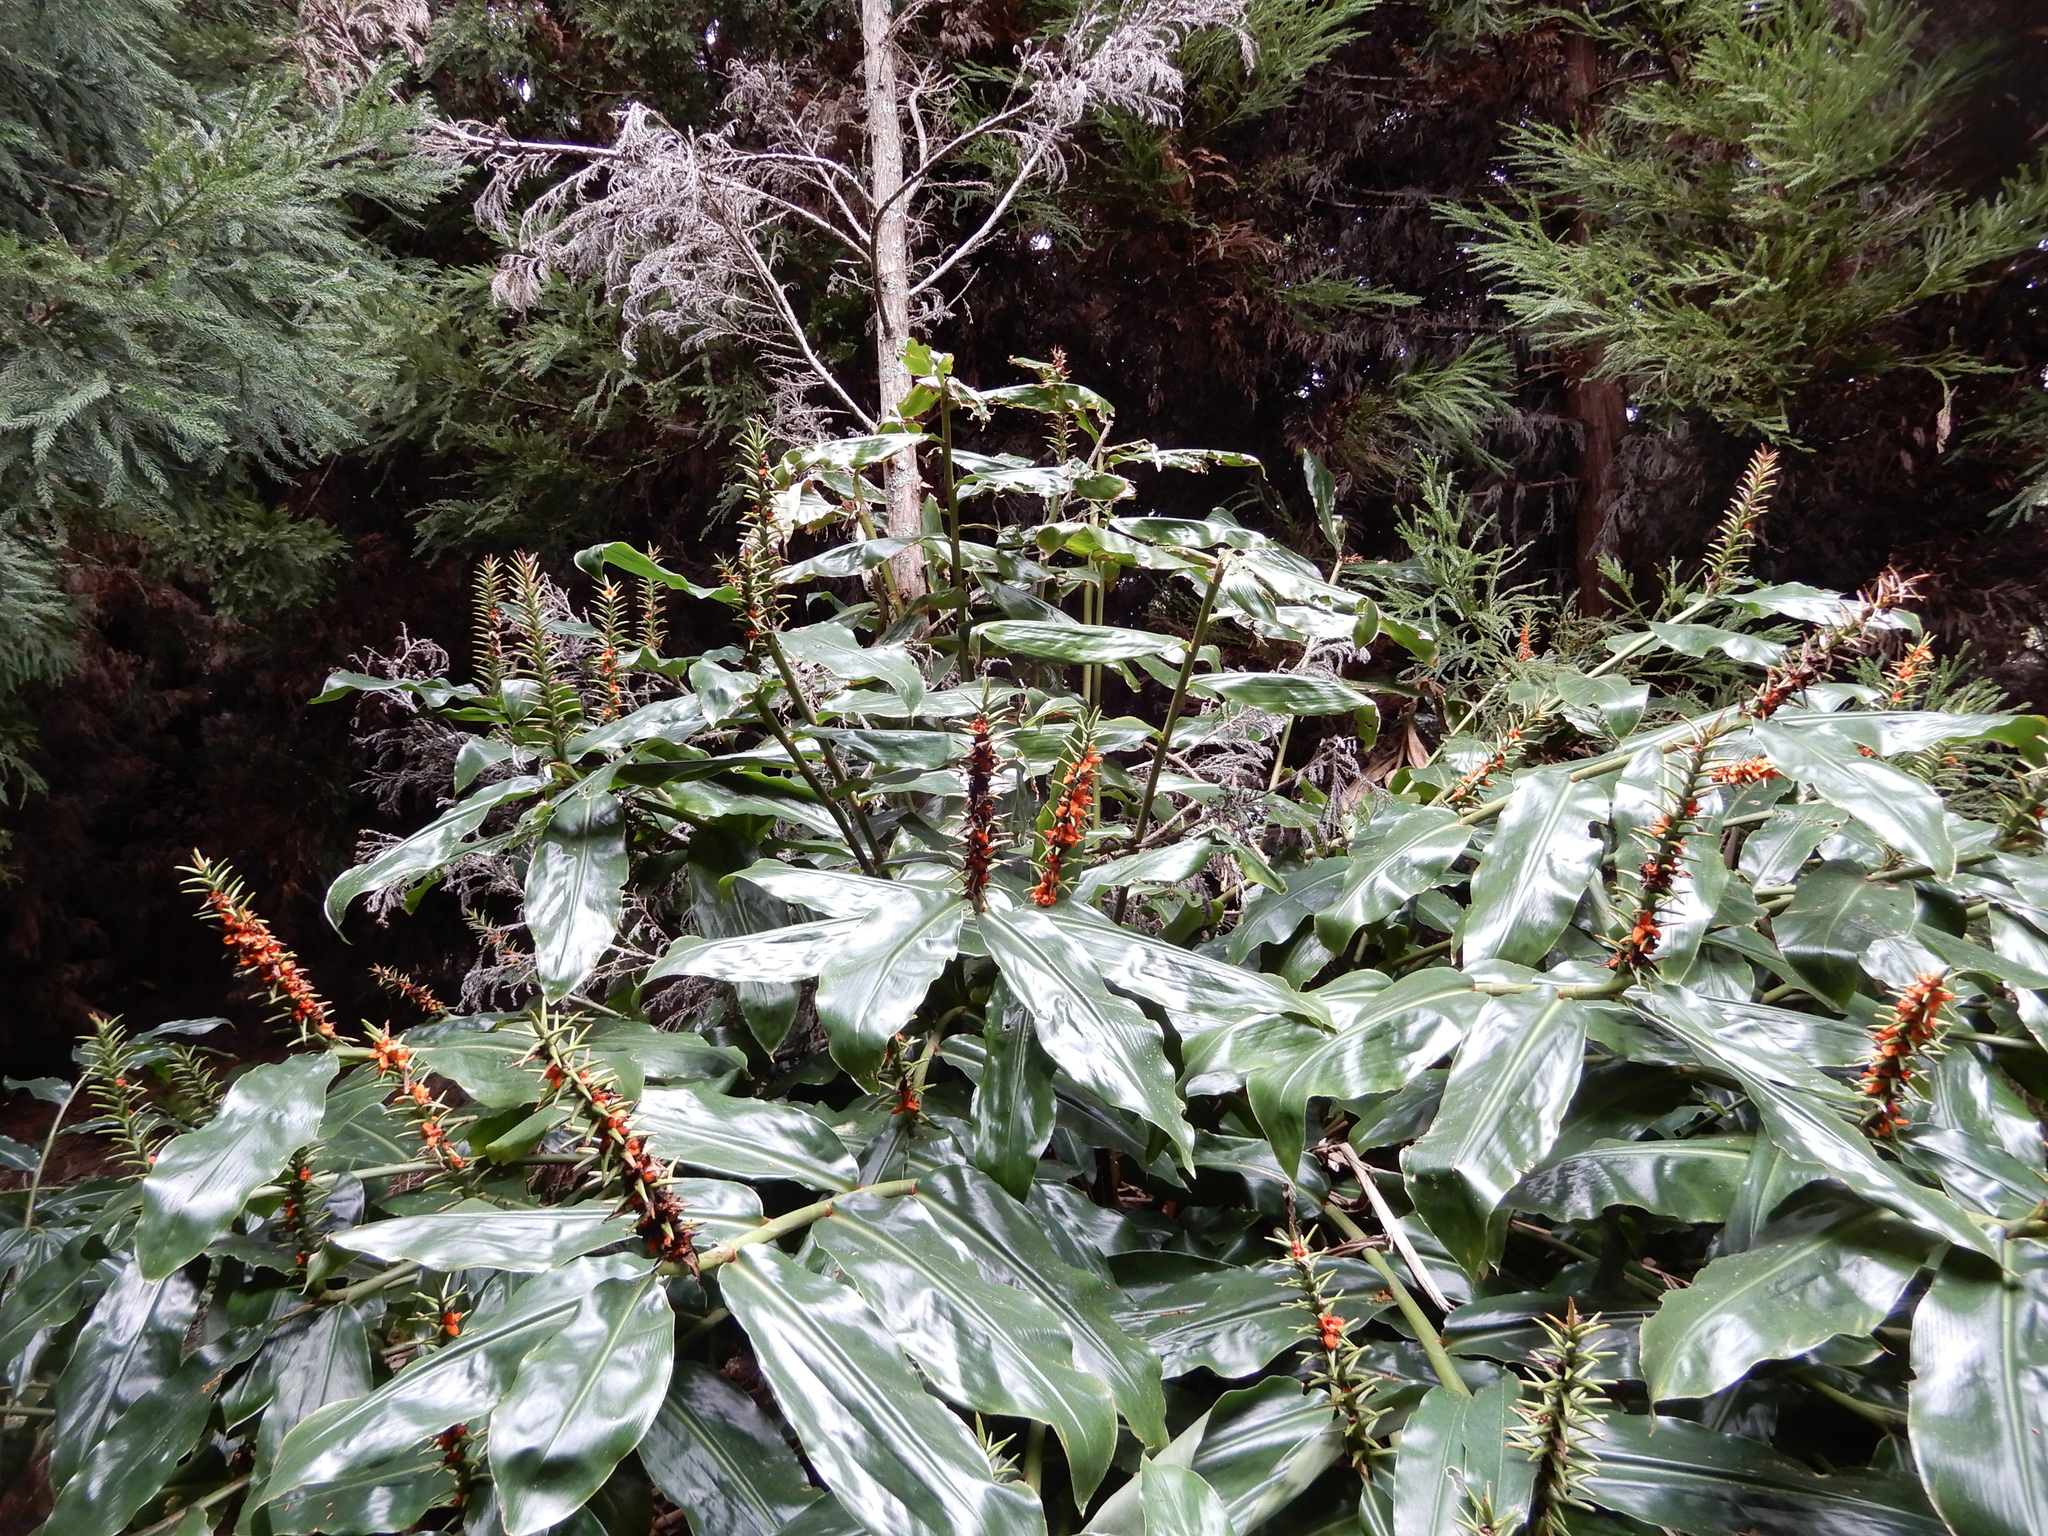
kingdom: Plantae
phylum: Tracheophyta
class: Liliopsida
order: Zingiberales
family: Zingiberaceae
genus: Hedychium
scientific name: Hedychium gardnerianum
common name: Himalayan ginger
